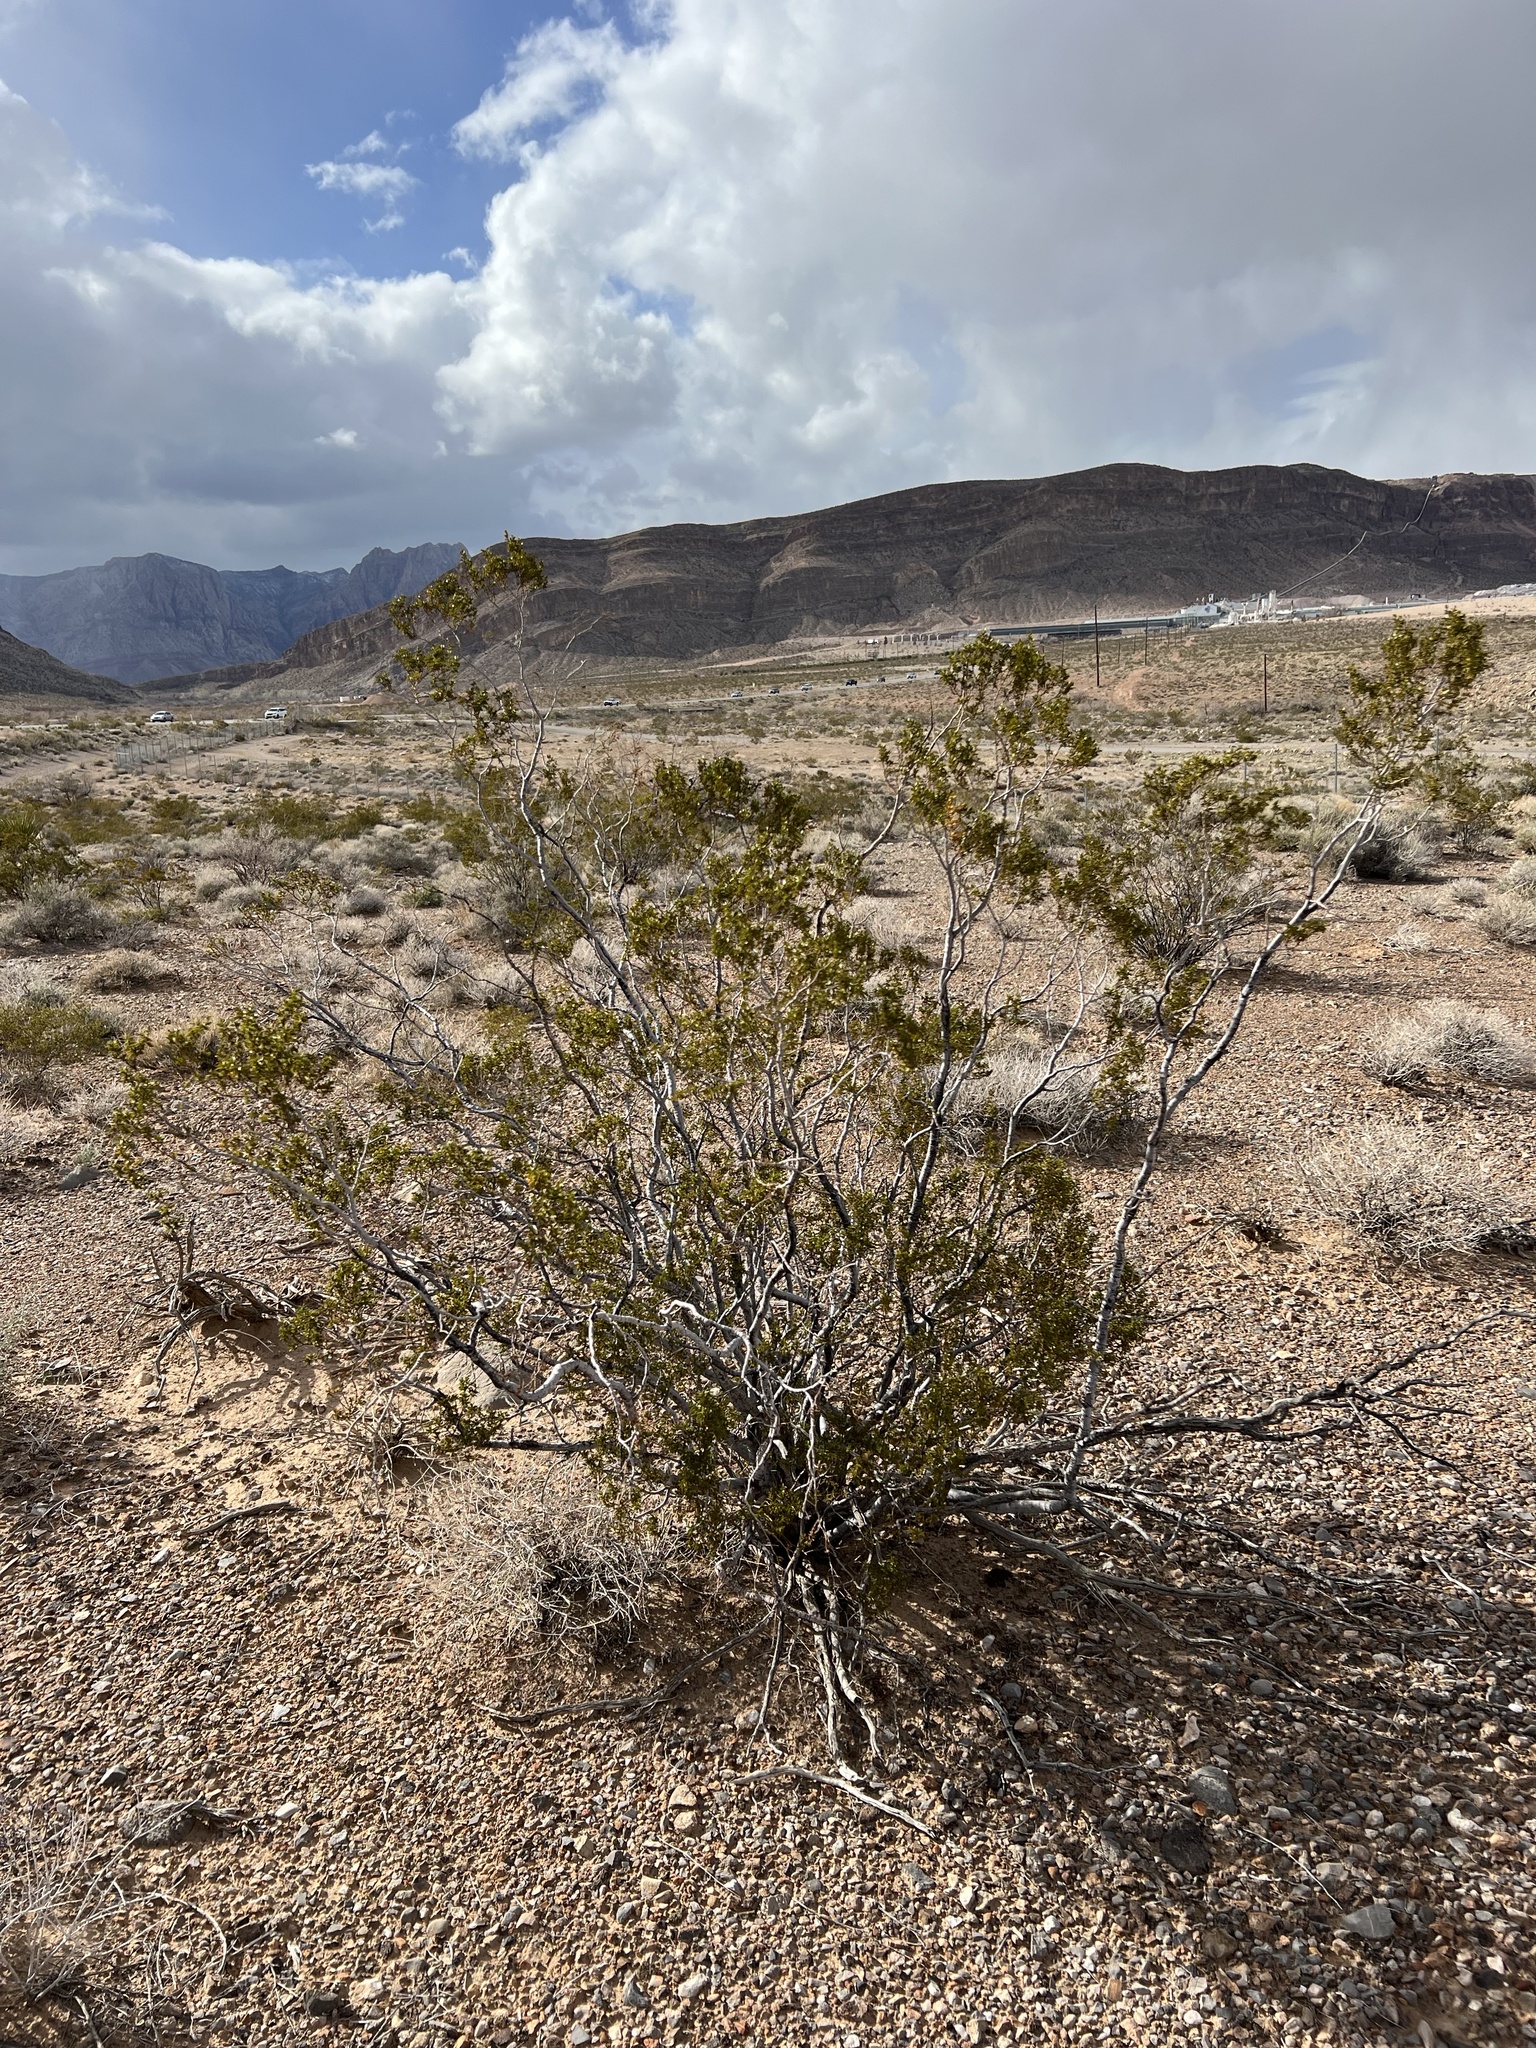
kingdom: Plantae
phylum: Tracheophyta
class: Magnoliopsida
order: Zygophyllales
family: Zygophyllaceae
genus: Larrea
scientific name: Larrea tridentata
